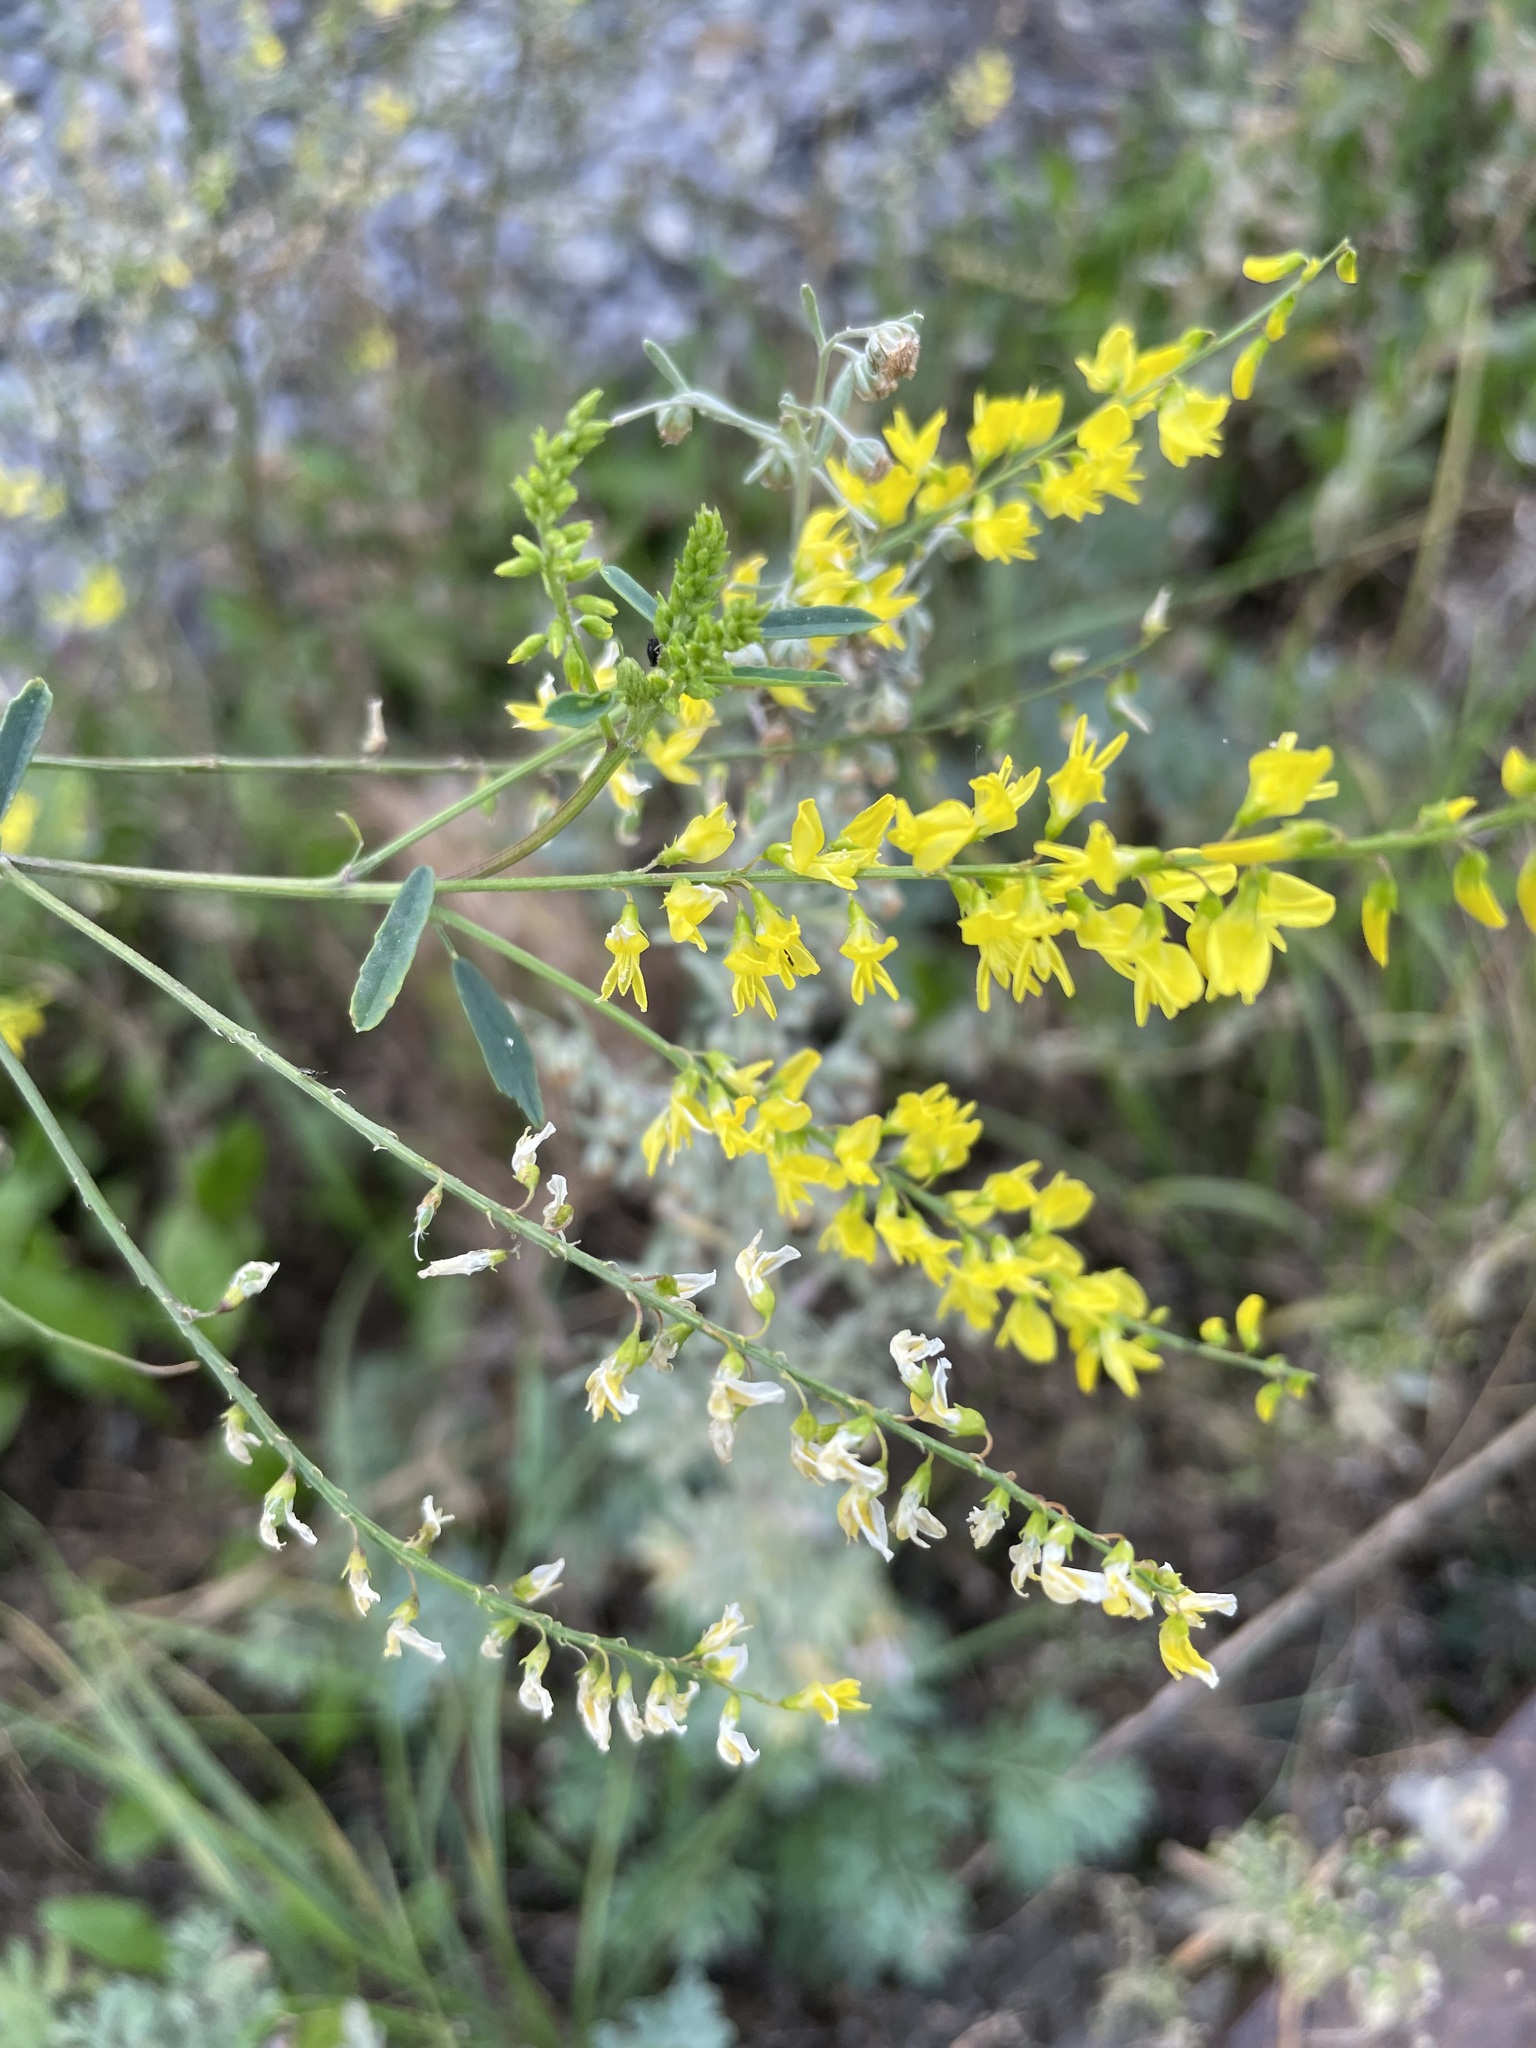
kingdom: Plantae
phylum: Tracheophyta
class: Magnoliopsida
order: Fabales
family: Fabaceae
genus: Melilotus
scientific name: Melilotus officinalis
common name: Sweetclover
